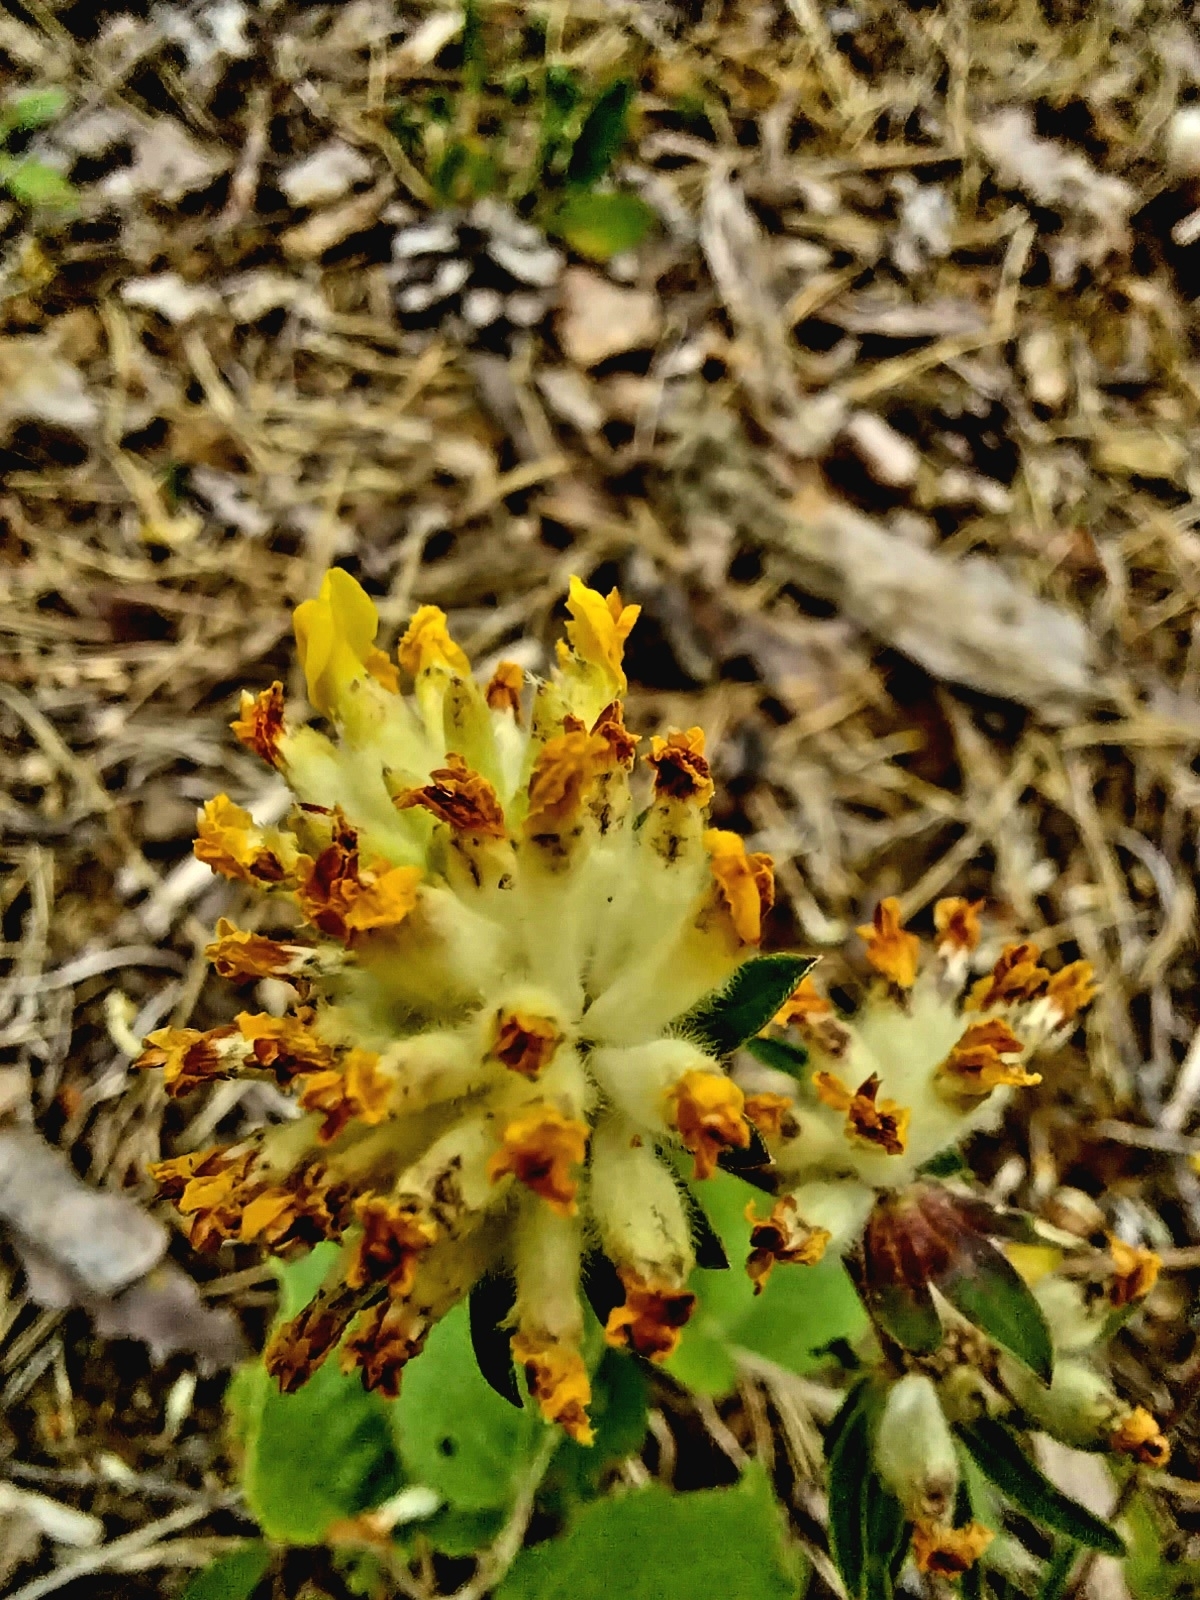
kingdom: Plantae
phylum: Tracheophyta
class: Magnoliopsida
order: Fabales
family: Fabaceae
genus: Anthyllis
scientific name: Anthyllis vulneraria
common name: Kidney vetch
